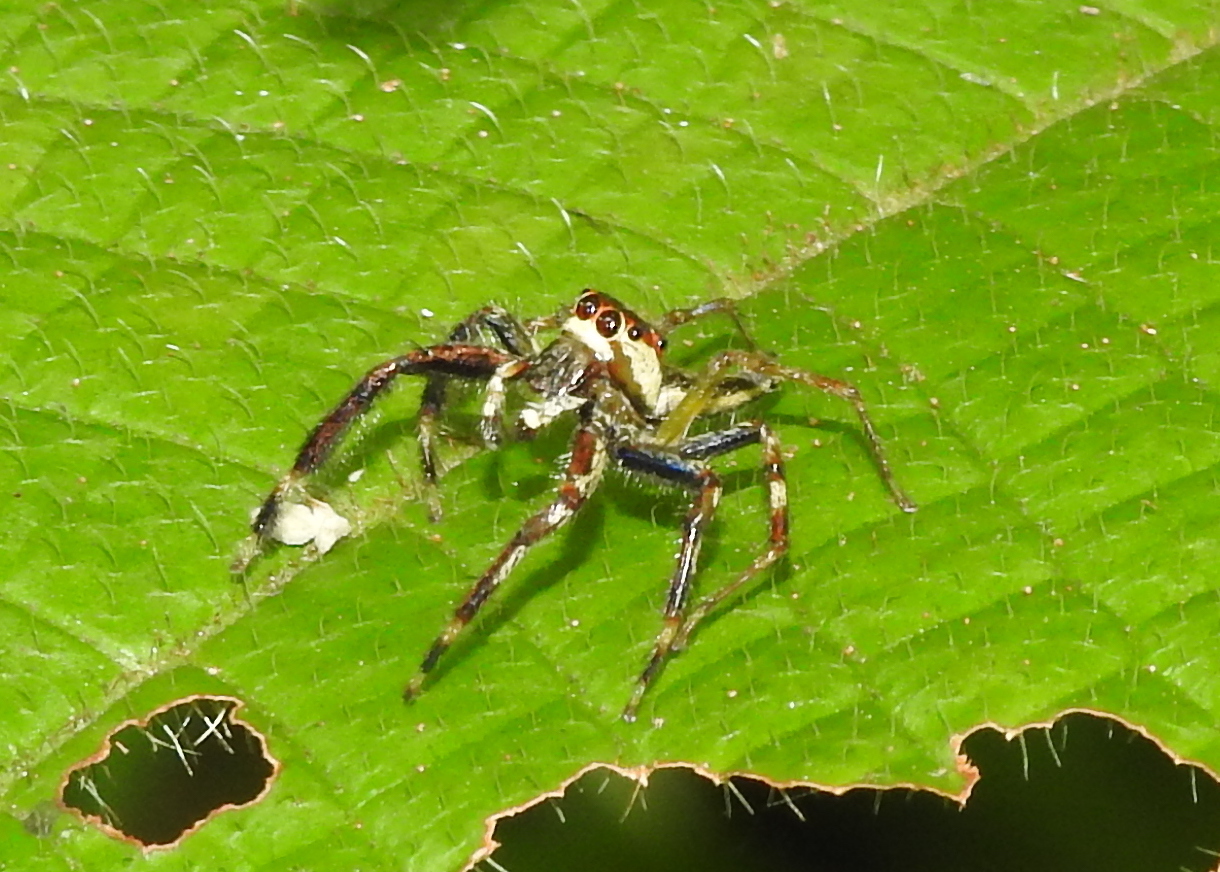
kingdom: Animalia
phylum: Arthropoda
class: Arachnida
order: Araneae
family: Salticidae
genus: Telamonia
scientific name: Telamonia festiva
